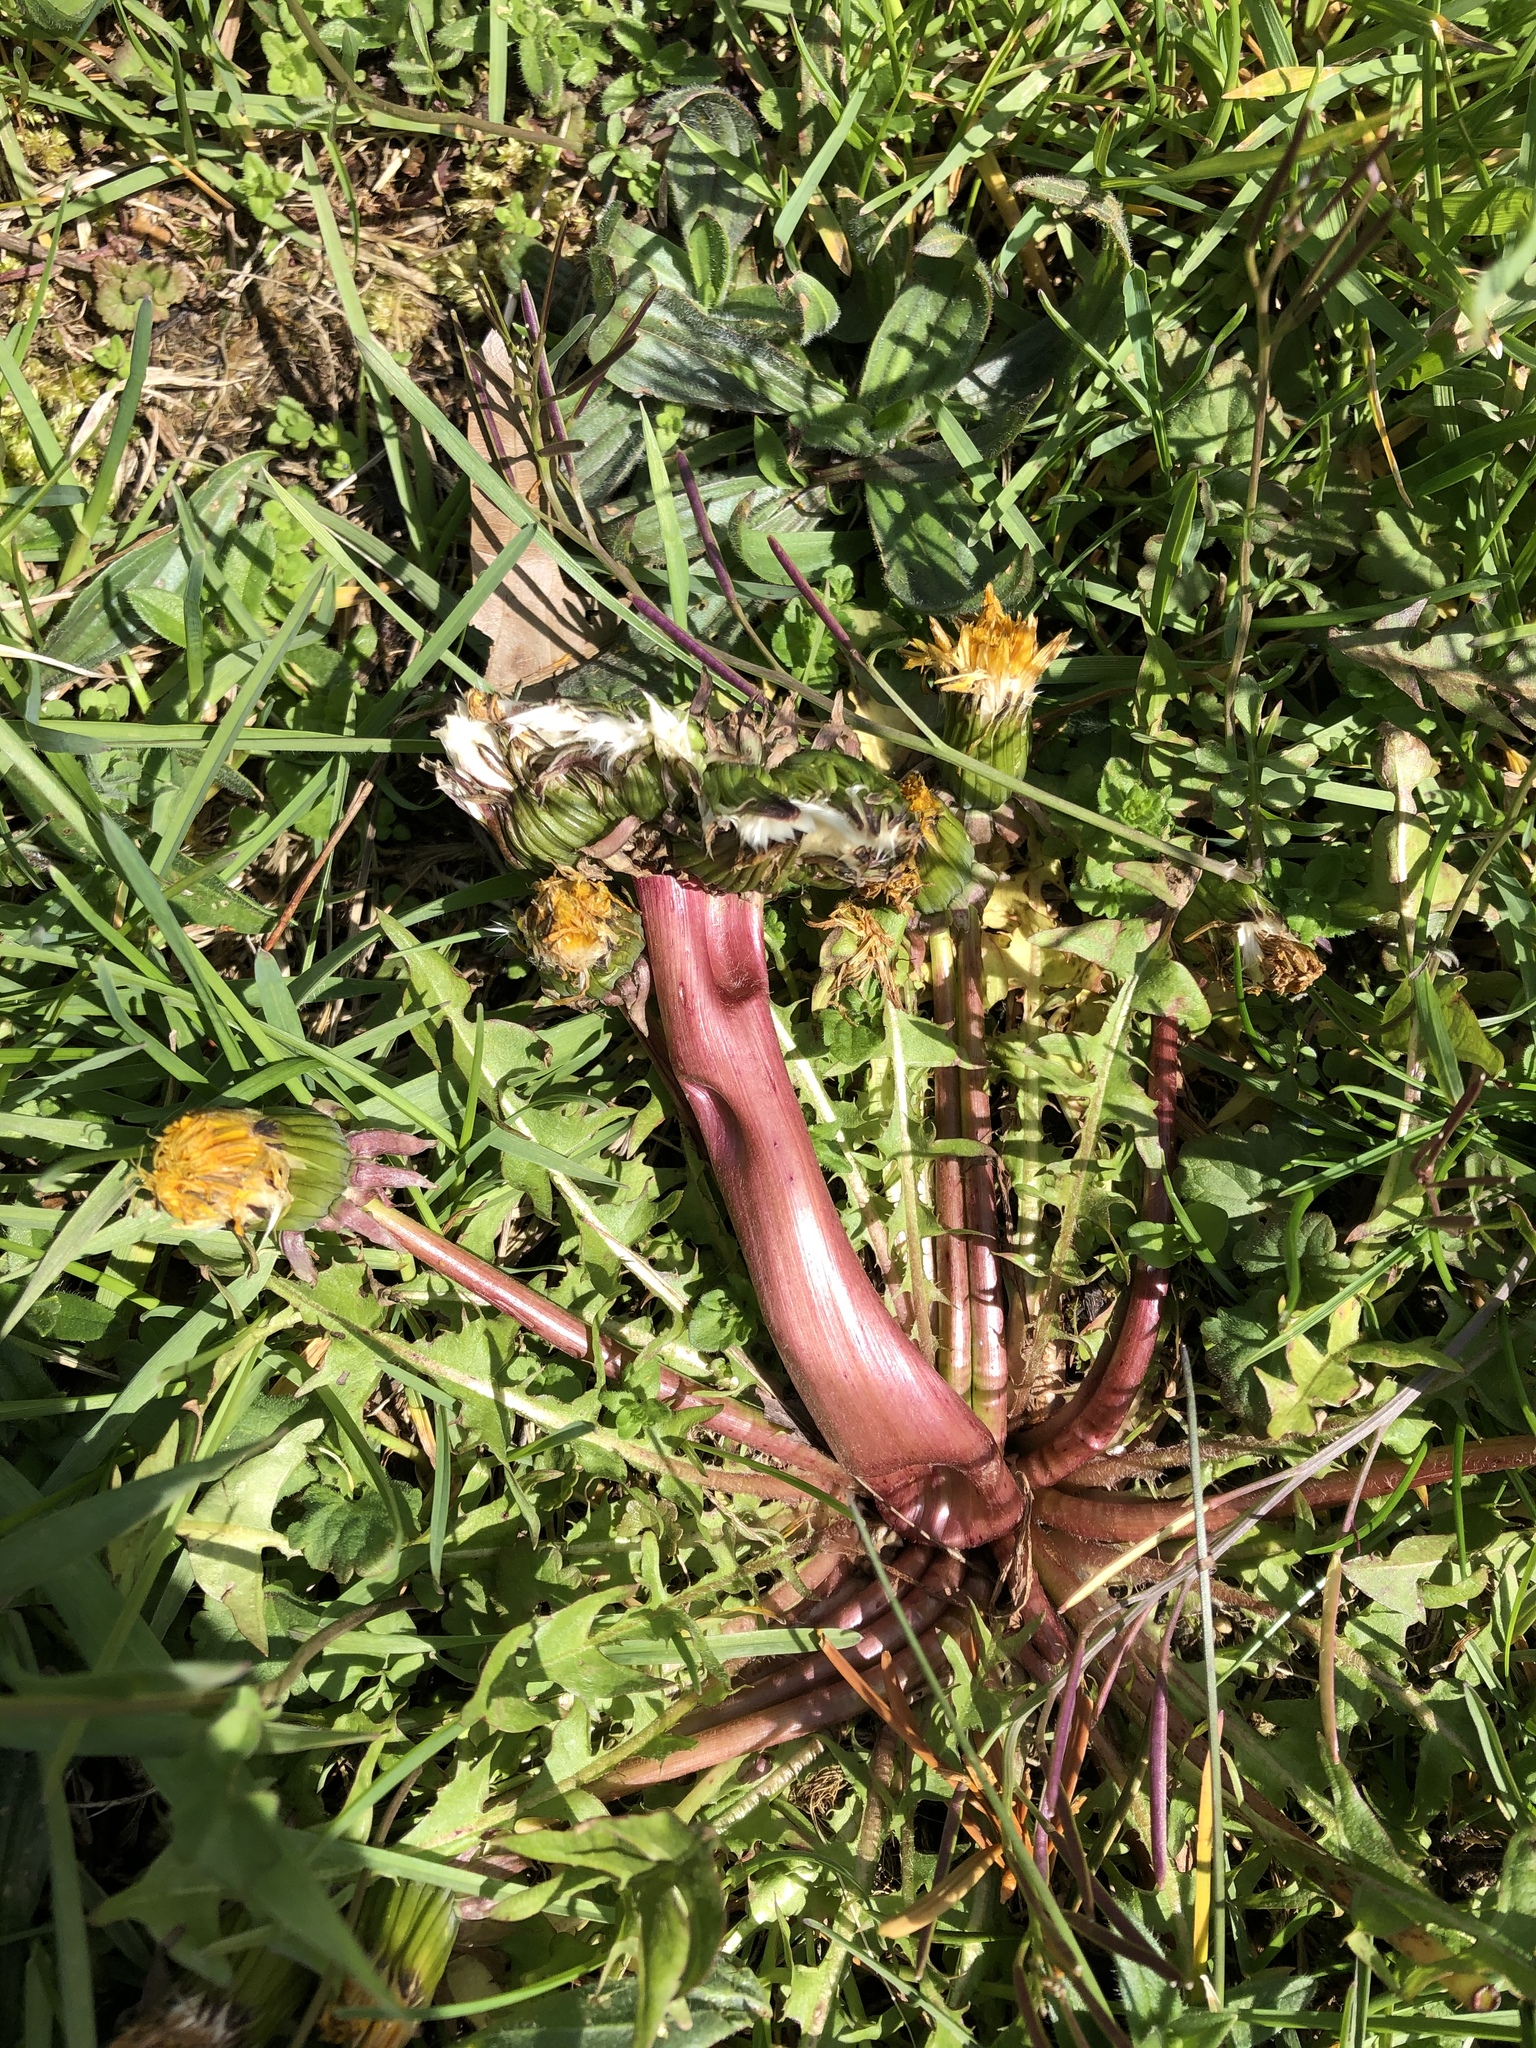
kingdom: Plantae
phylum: Tracheophyta
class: Magnoliopsida
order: Asterales
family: Asteraceae
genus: Taraxacum
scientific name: Taraxacum officinale
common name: Common dandelion
